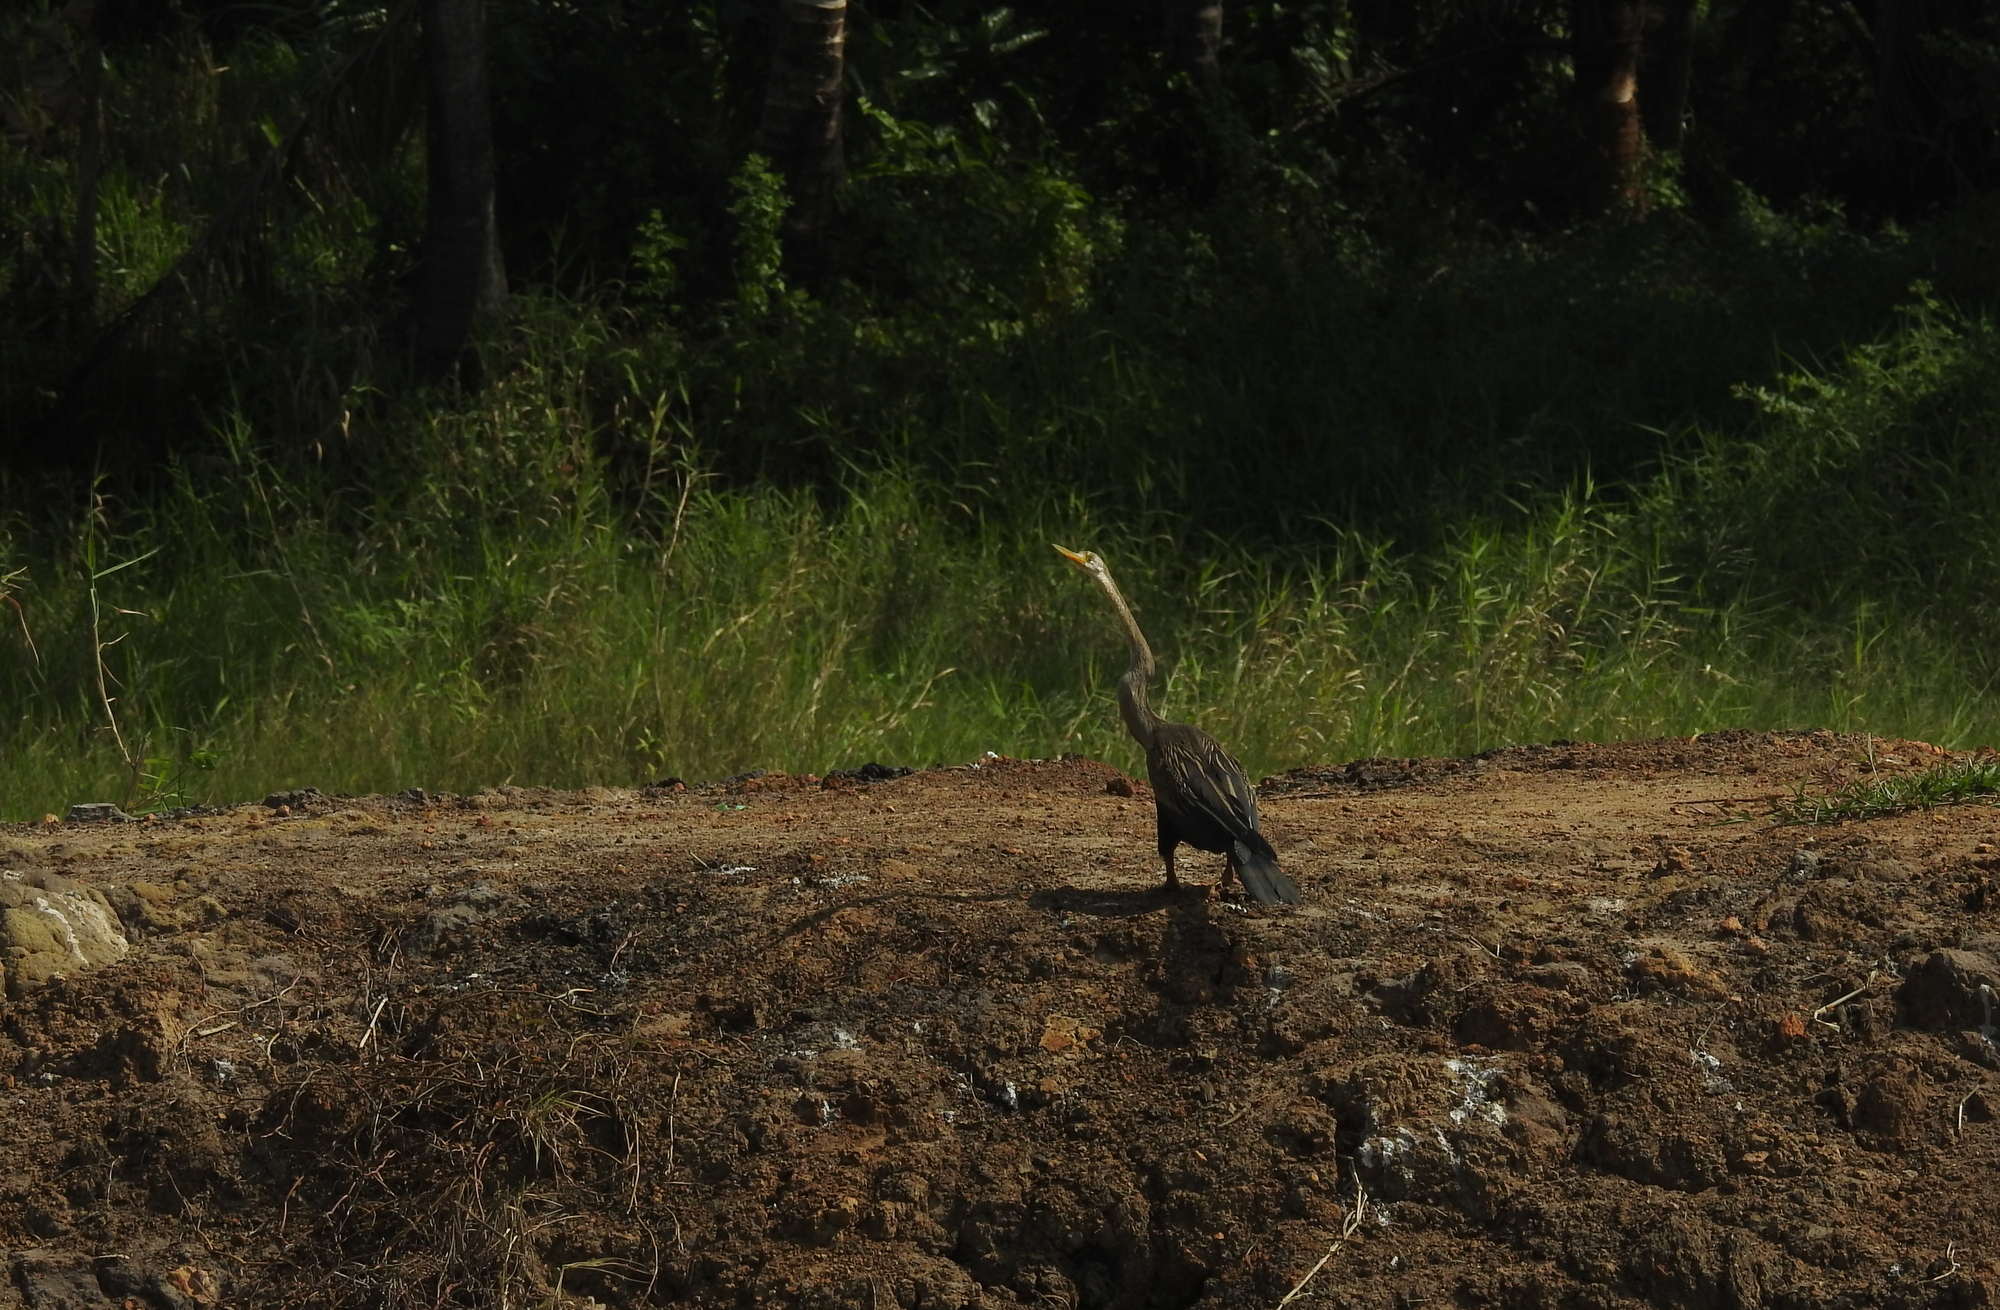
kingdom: Animalia
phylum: Chordata
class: Aves
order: Suliformes
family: Anhingidae
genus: Anhinga
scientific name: Anhinga melanogaster
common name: Oriental darter
